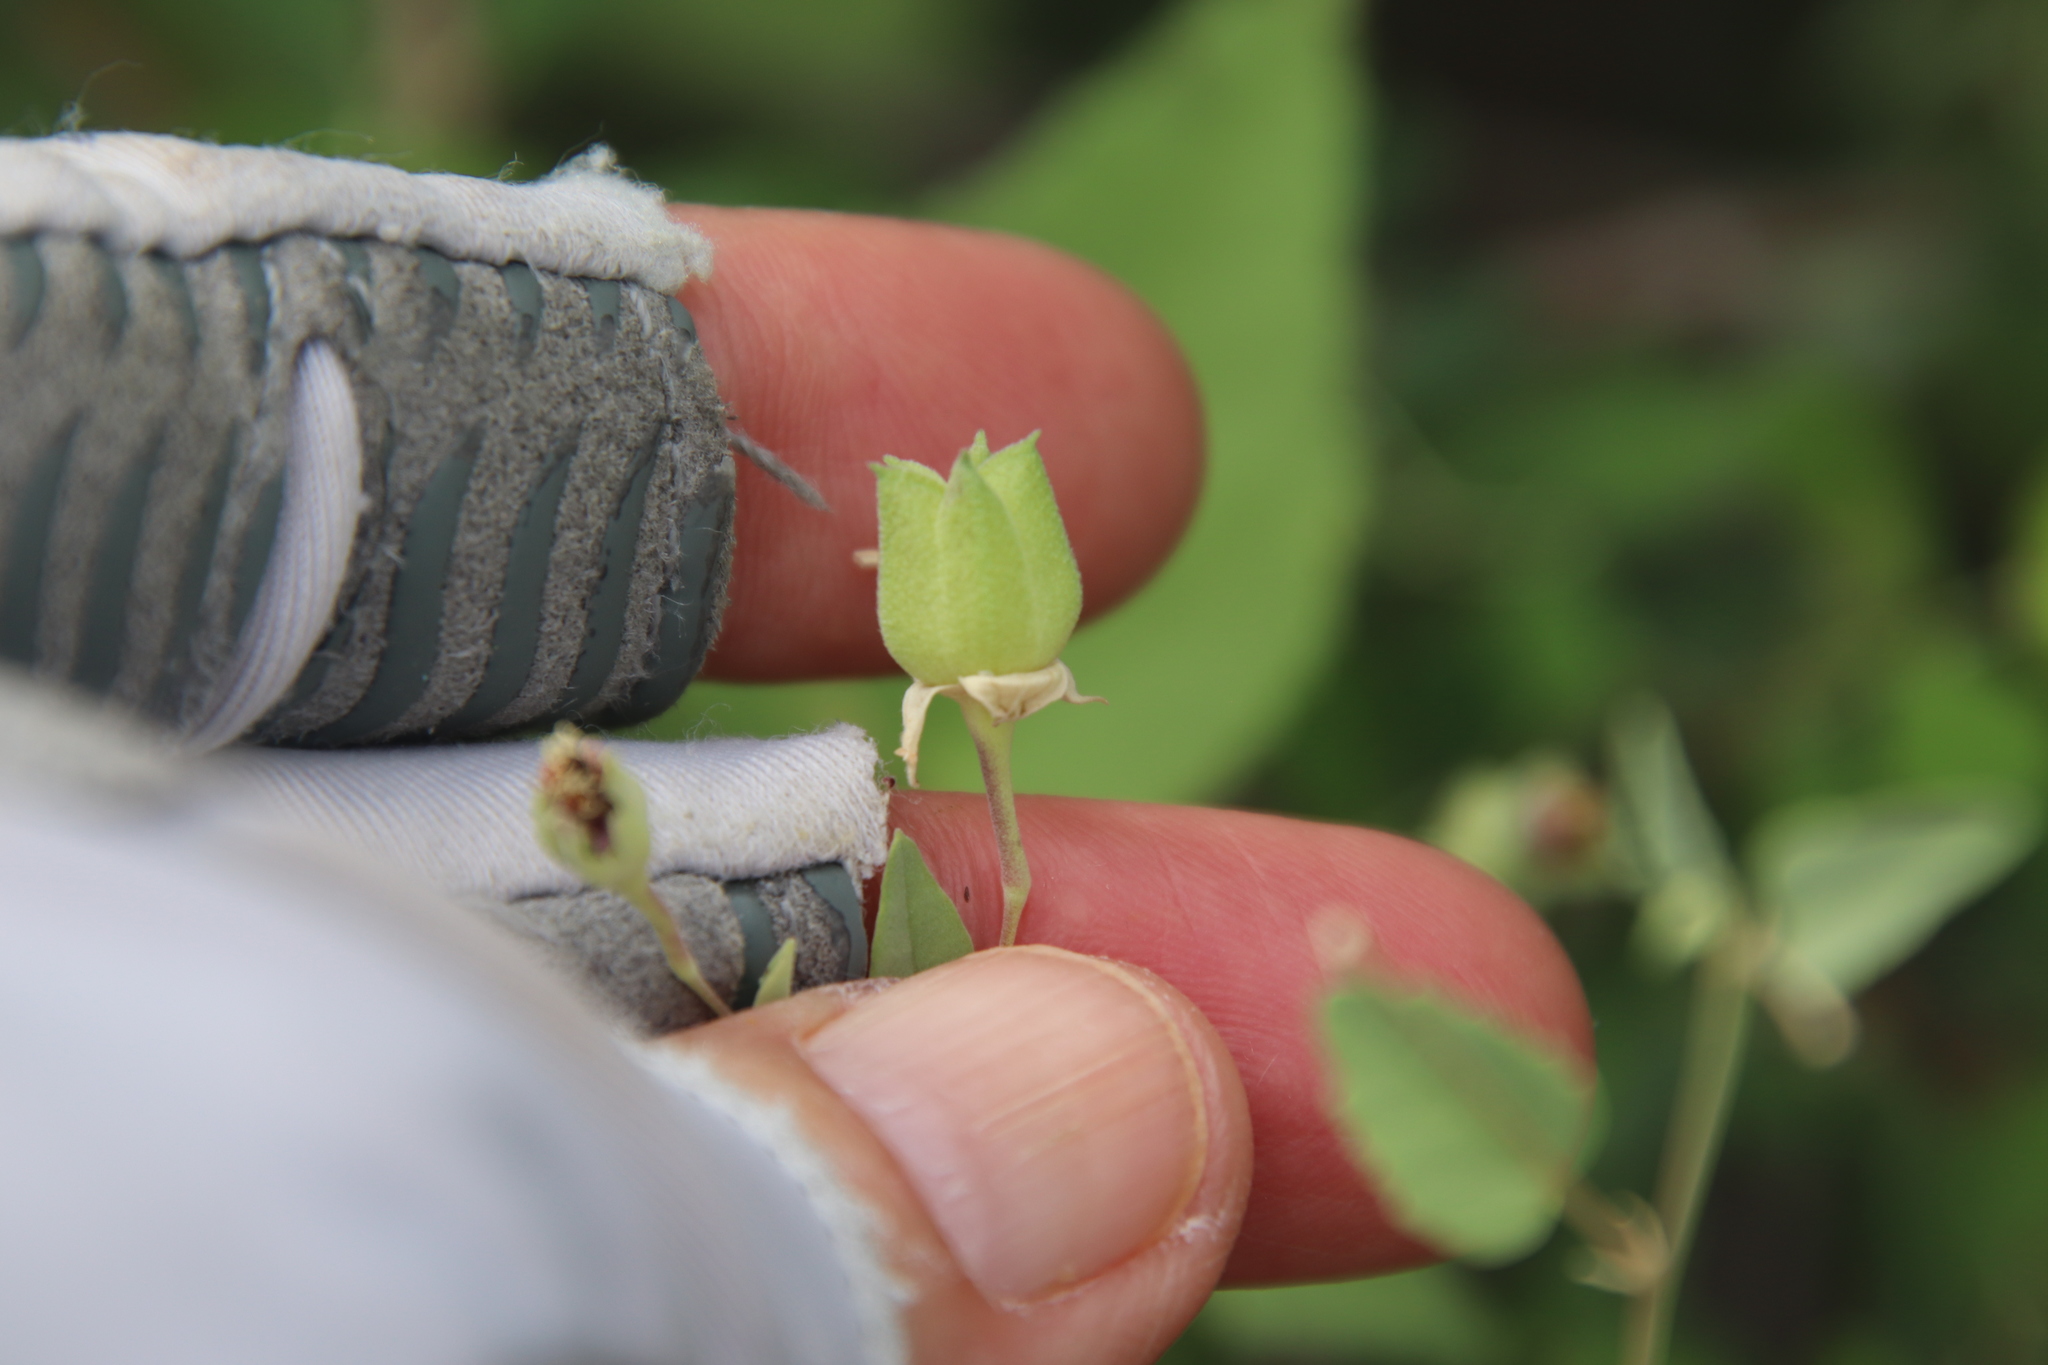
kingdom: Plantae
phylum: Tracheophyta
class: Magnoliopsida
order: Malvales
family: Malvaceae
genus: Abutilon
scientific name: Abutilon incanum
